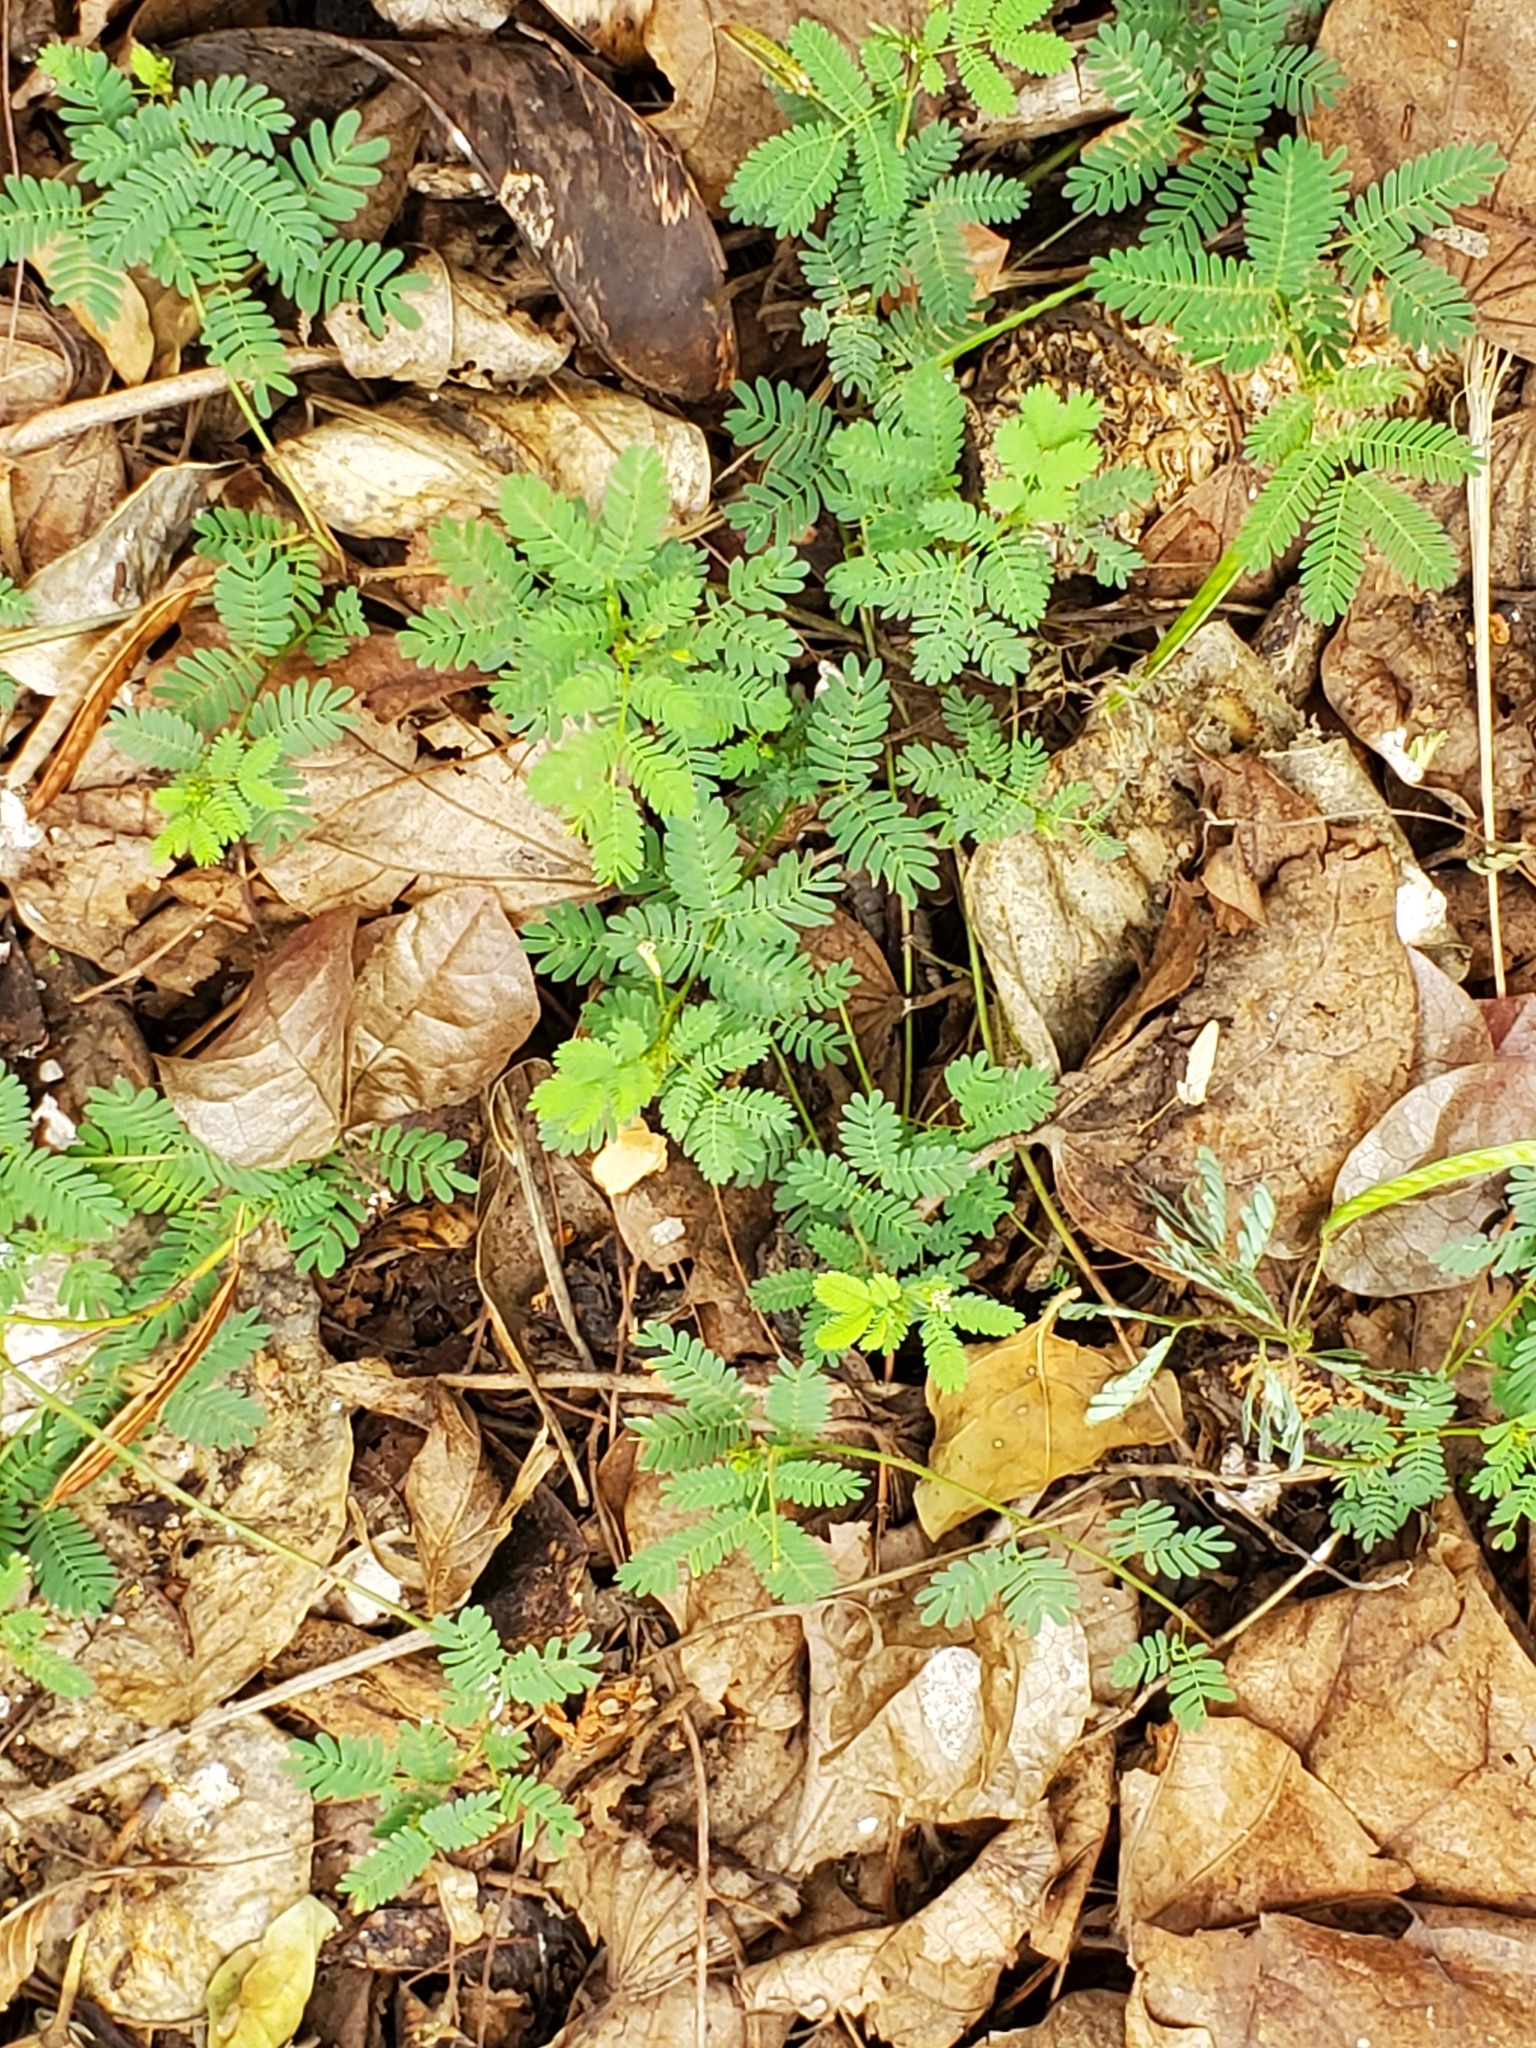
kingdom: Plantae
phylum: Tracheophyta
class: Magnoliopsida
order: Fabales
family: Fabaceae
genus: Mimosa
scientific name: Mimosa latidens
